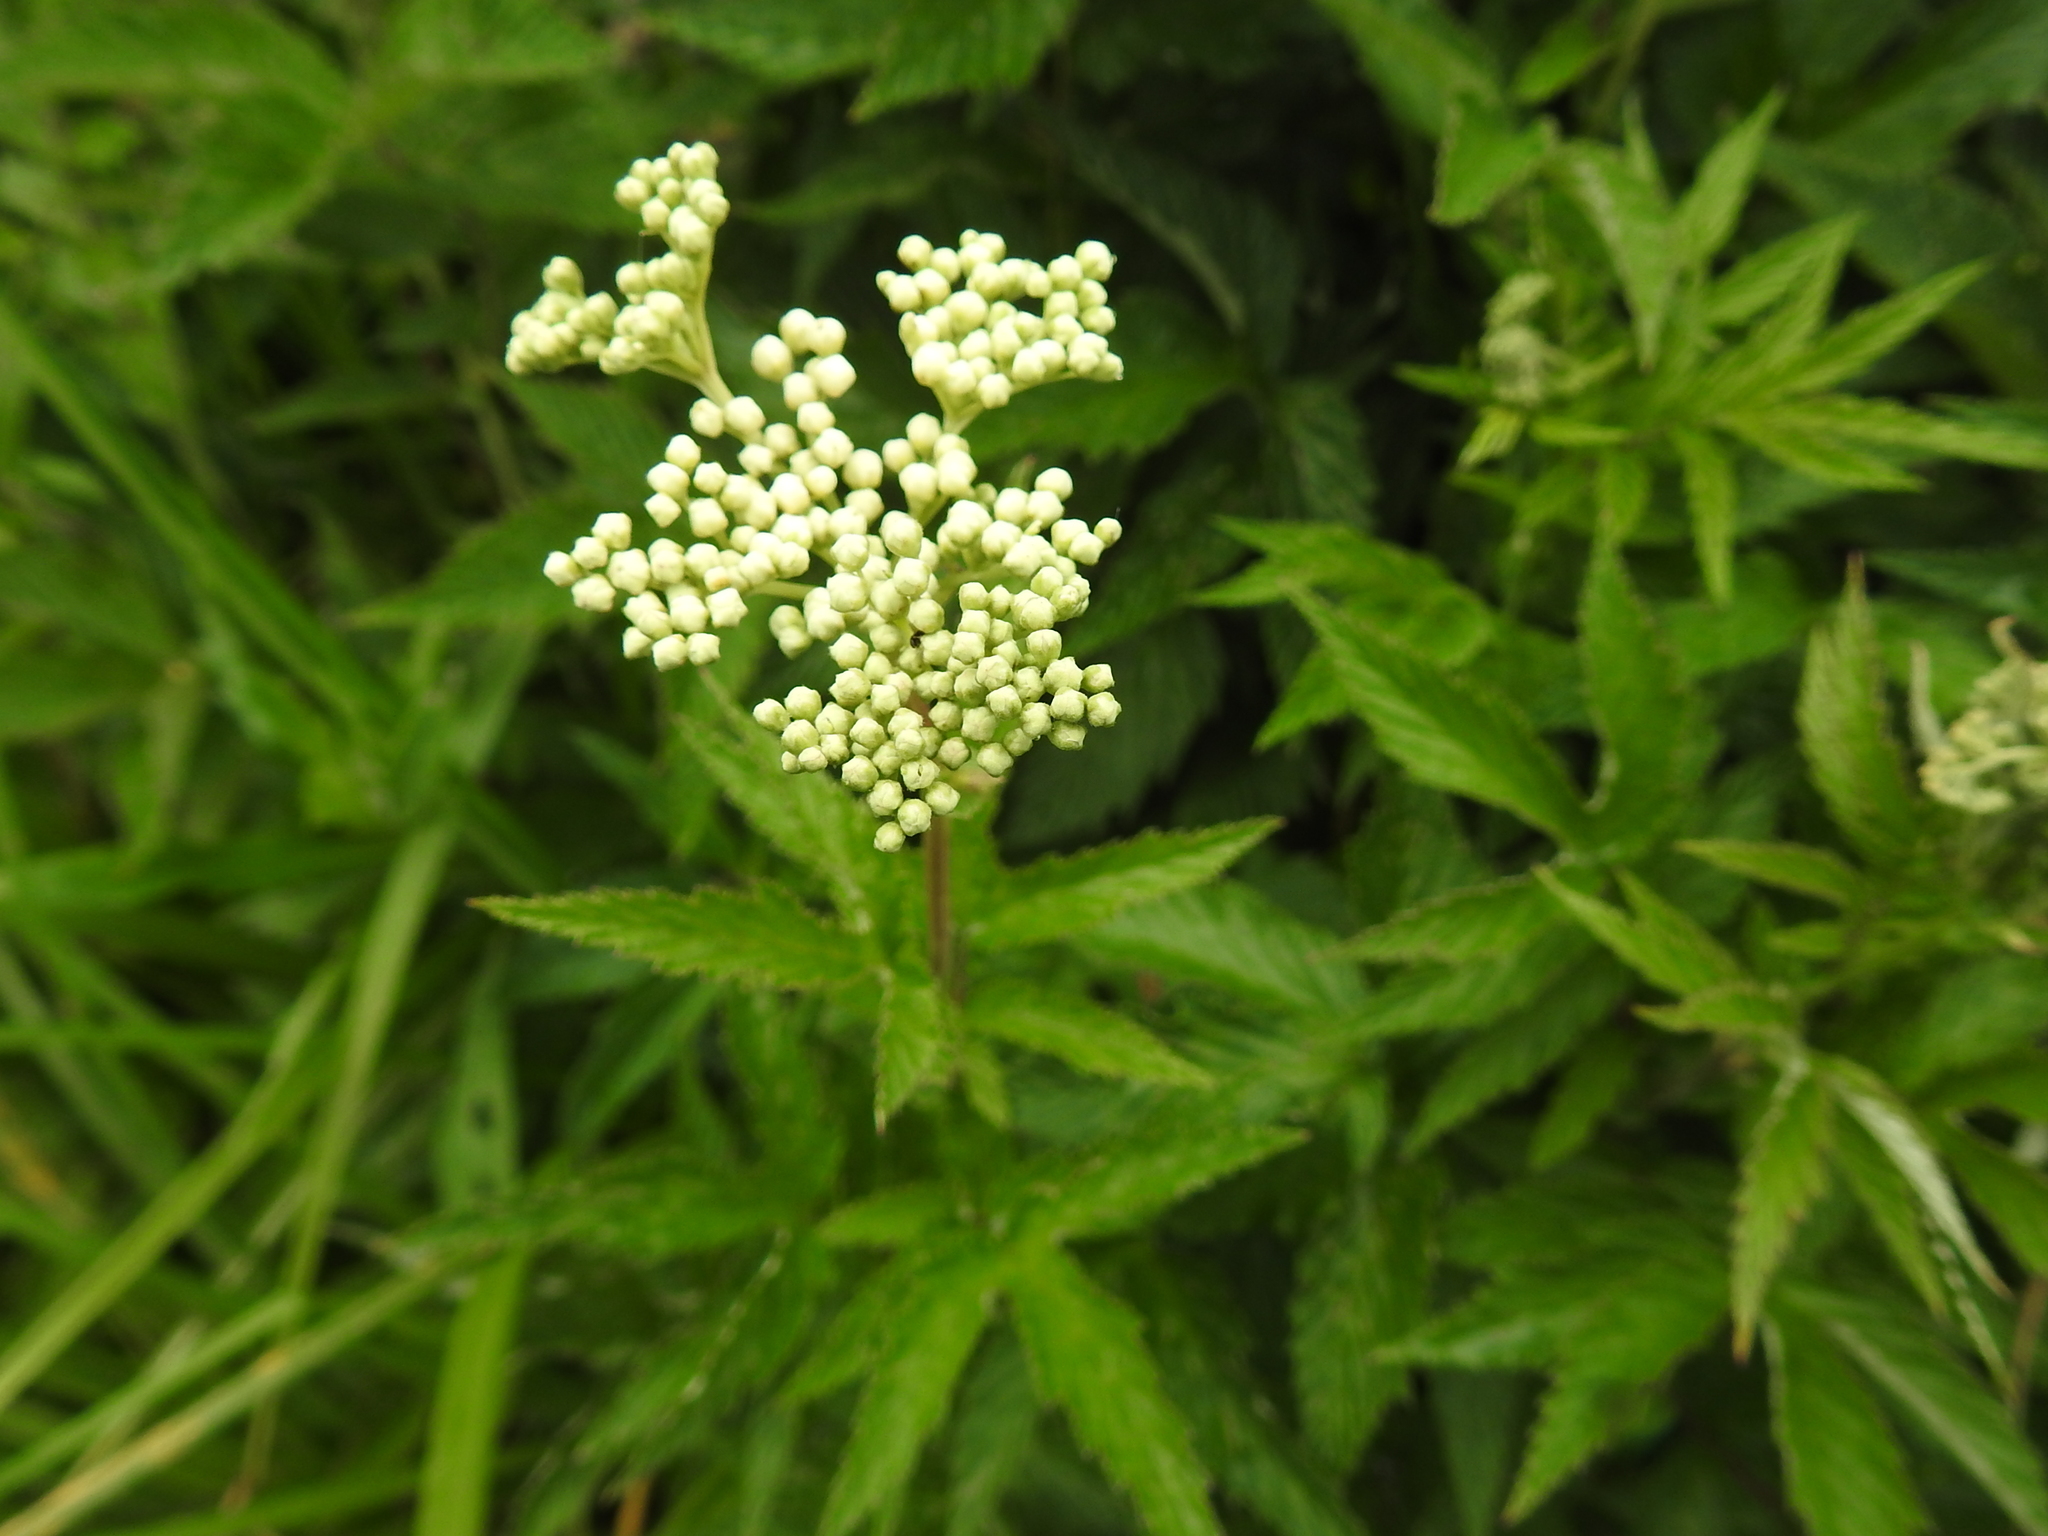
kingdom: Plantae
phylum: Tracheophyta
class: Magnoliopsida
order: Rosales
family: Rosaceae
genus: Filipendula
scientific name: Filipendula ulmaria
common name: Meadowsweet
